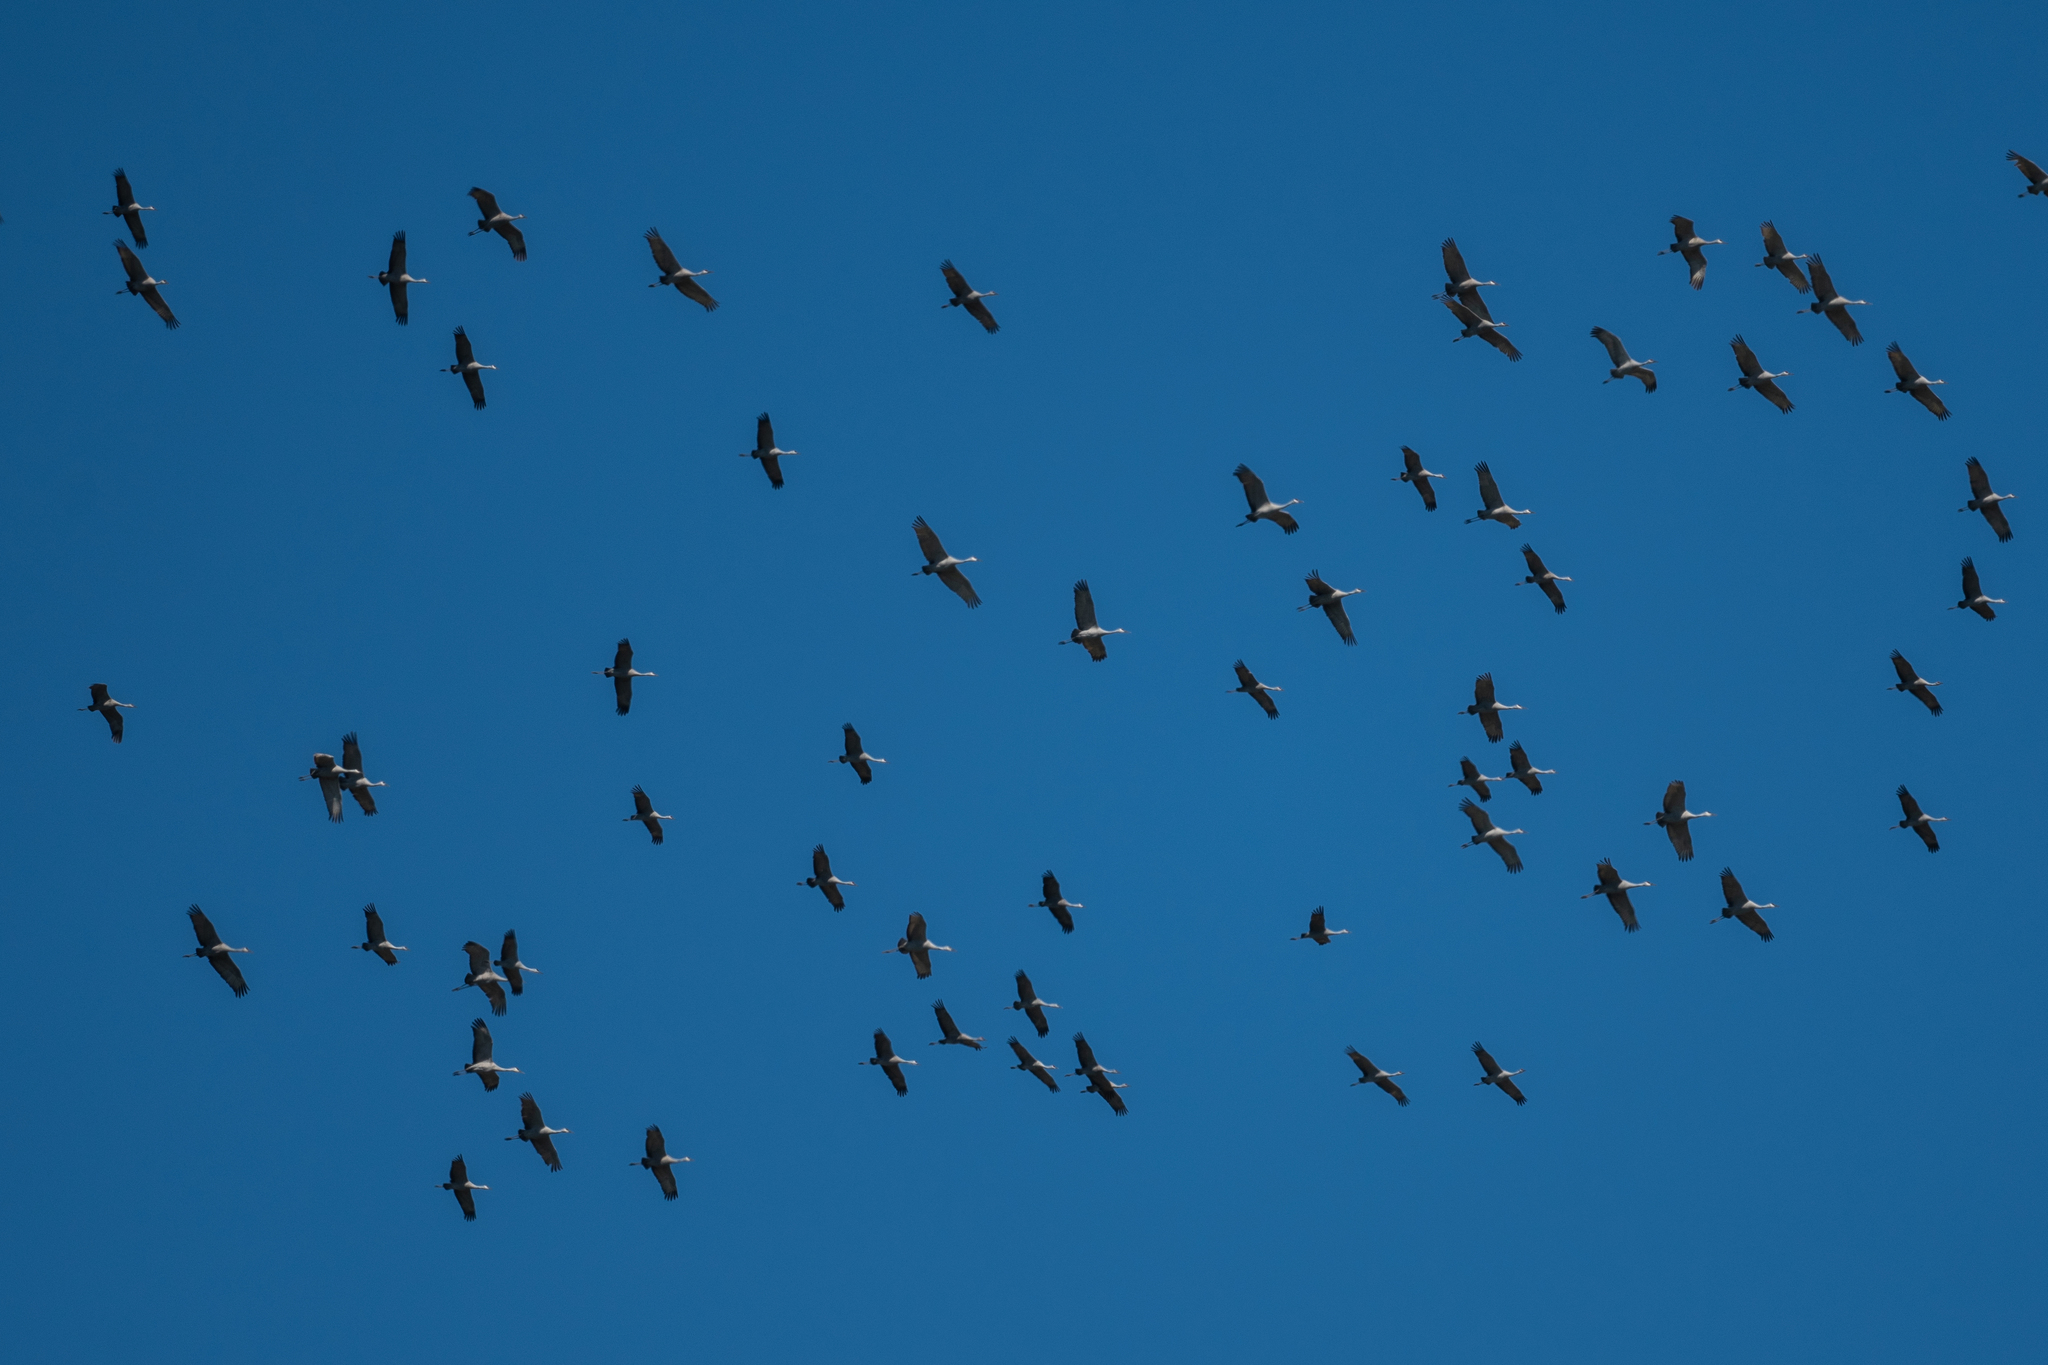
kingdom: Animalia
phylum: Chordata
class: Aves
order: Gruiformes
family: Gruidae
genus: Grus
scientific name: Grus canadensis
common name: Sandhill crane
